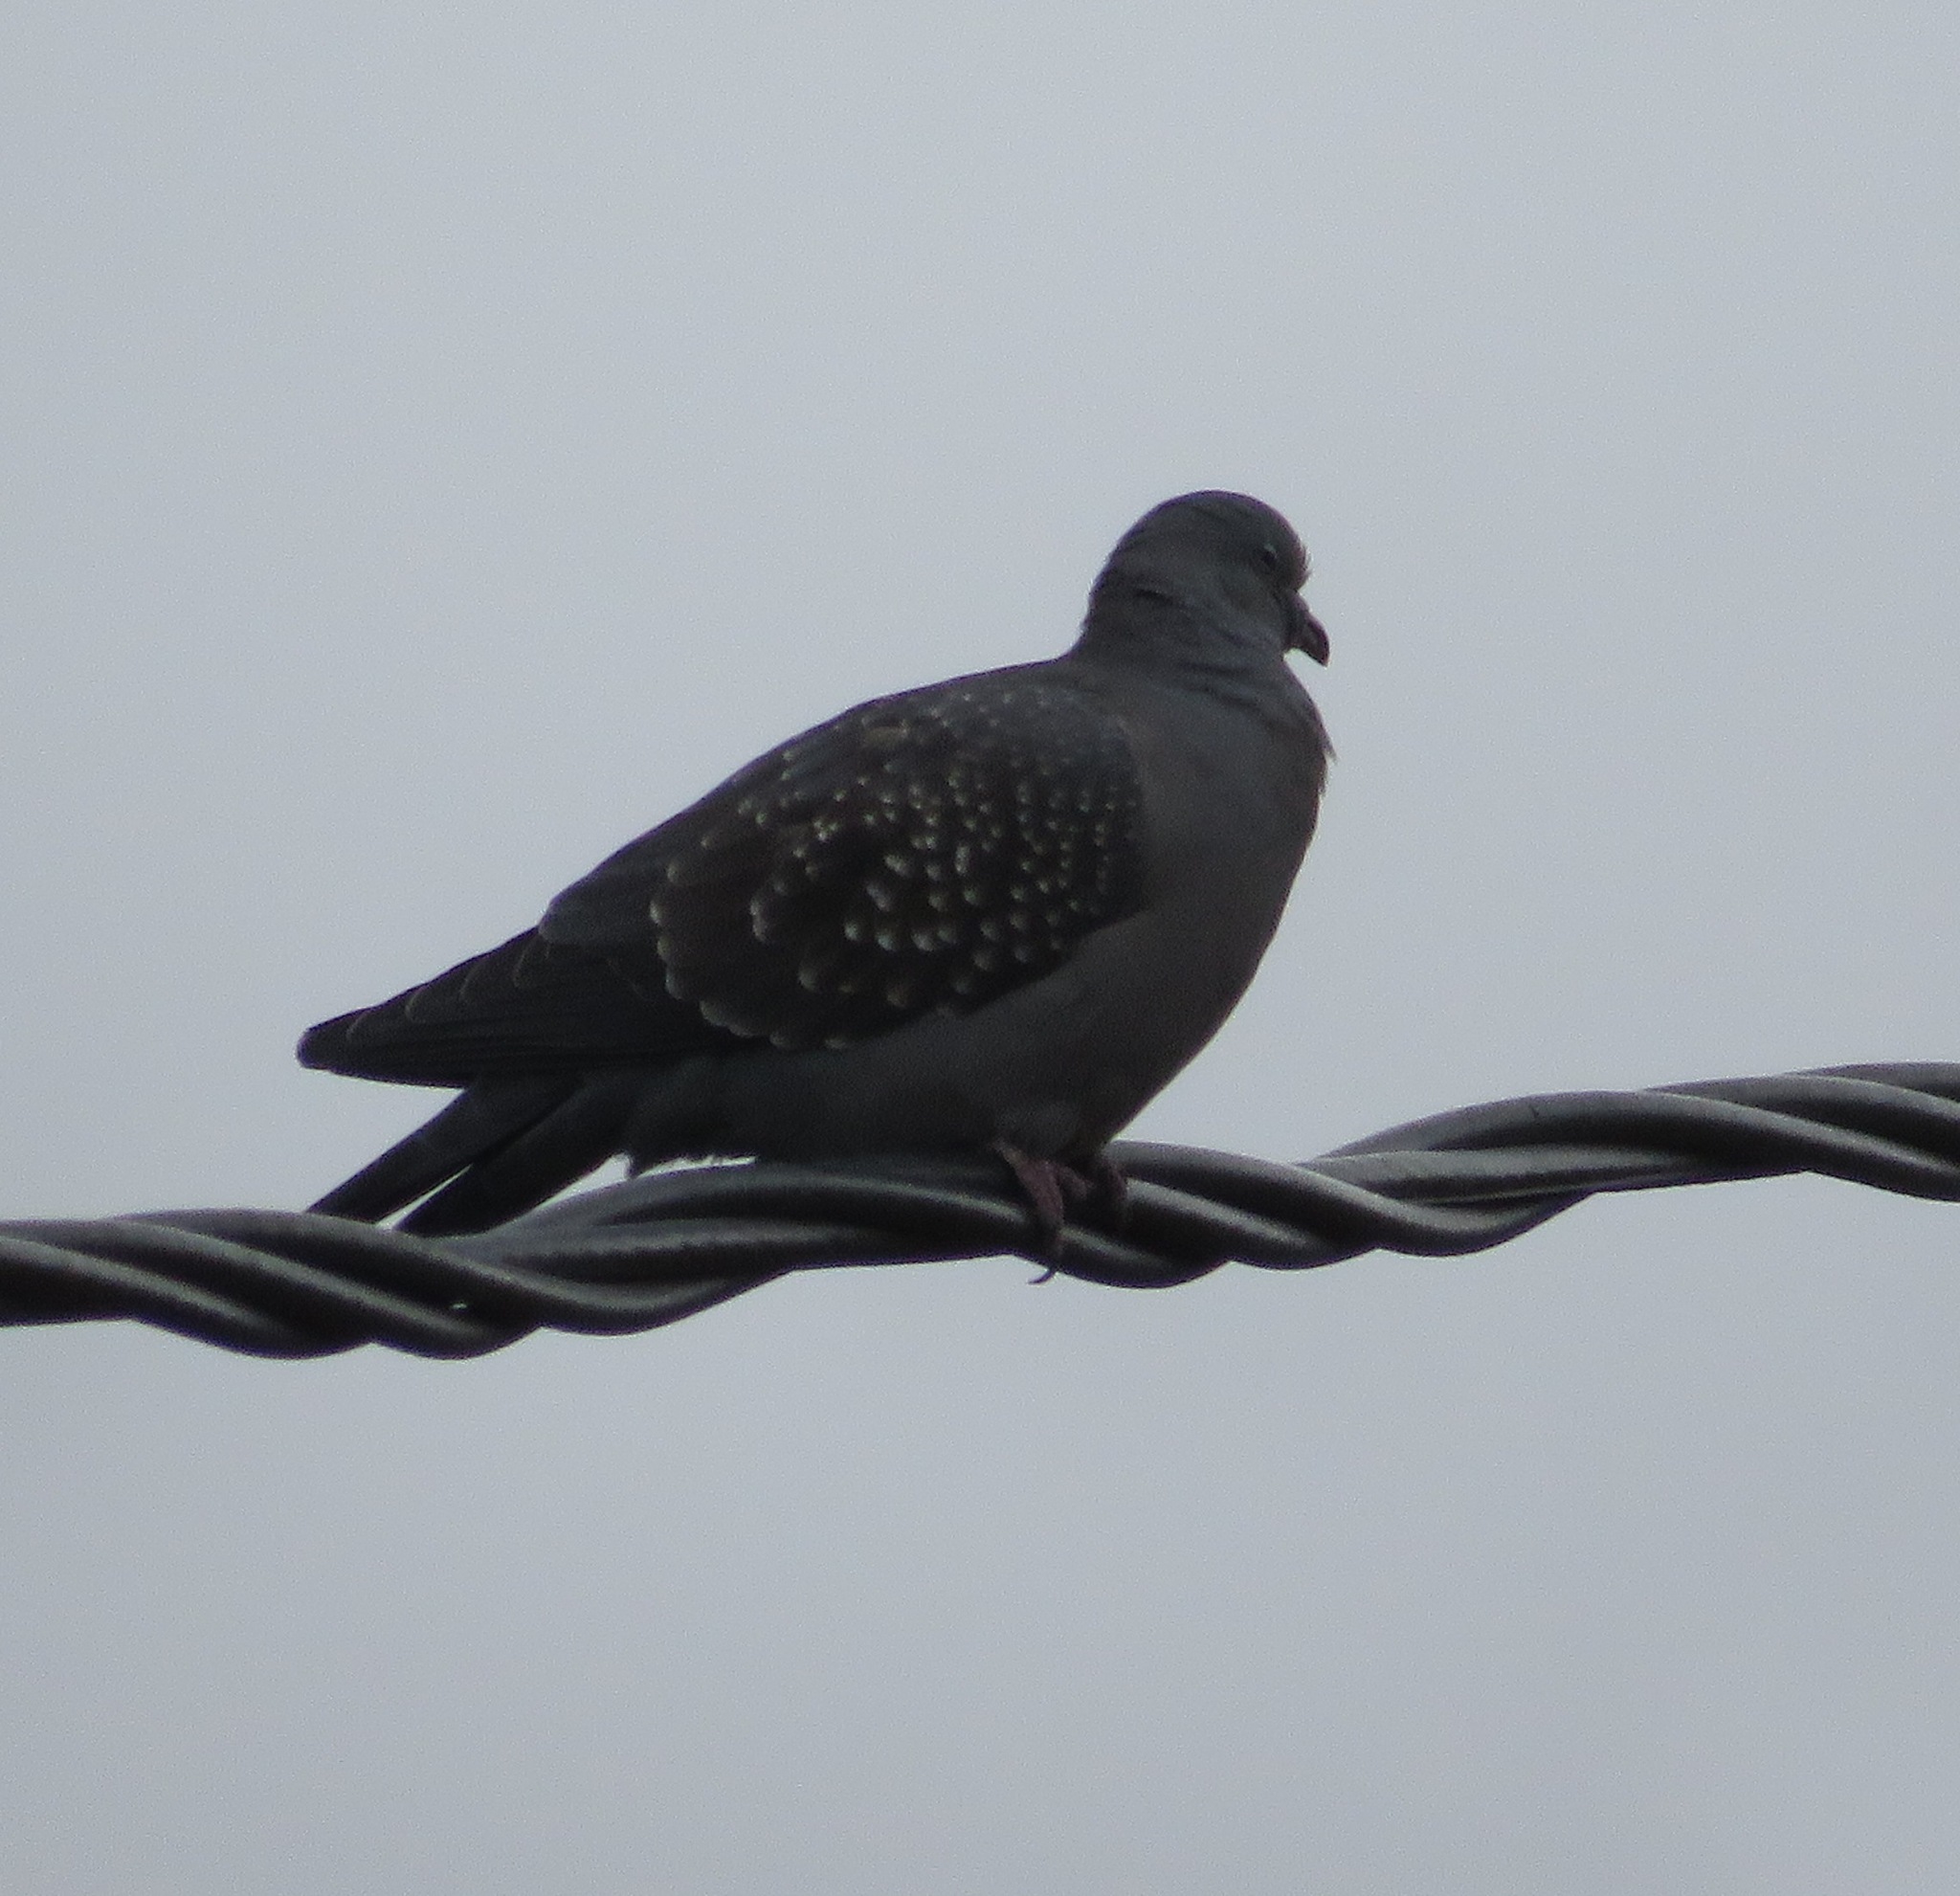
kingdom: Animalia
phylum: Chordata
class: Aves
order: Columbiformes
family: Columbidae
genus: Patagioenas
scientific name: Patagioenas maculosa
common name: Spot-winged pigeon
